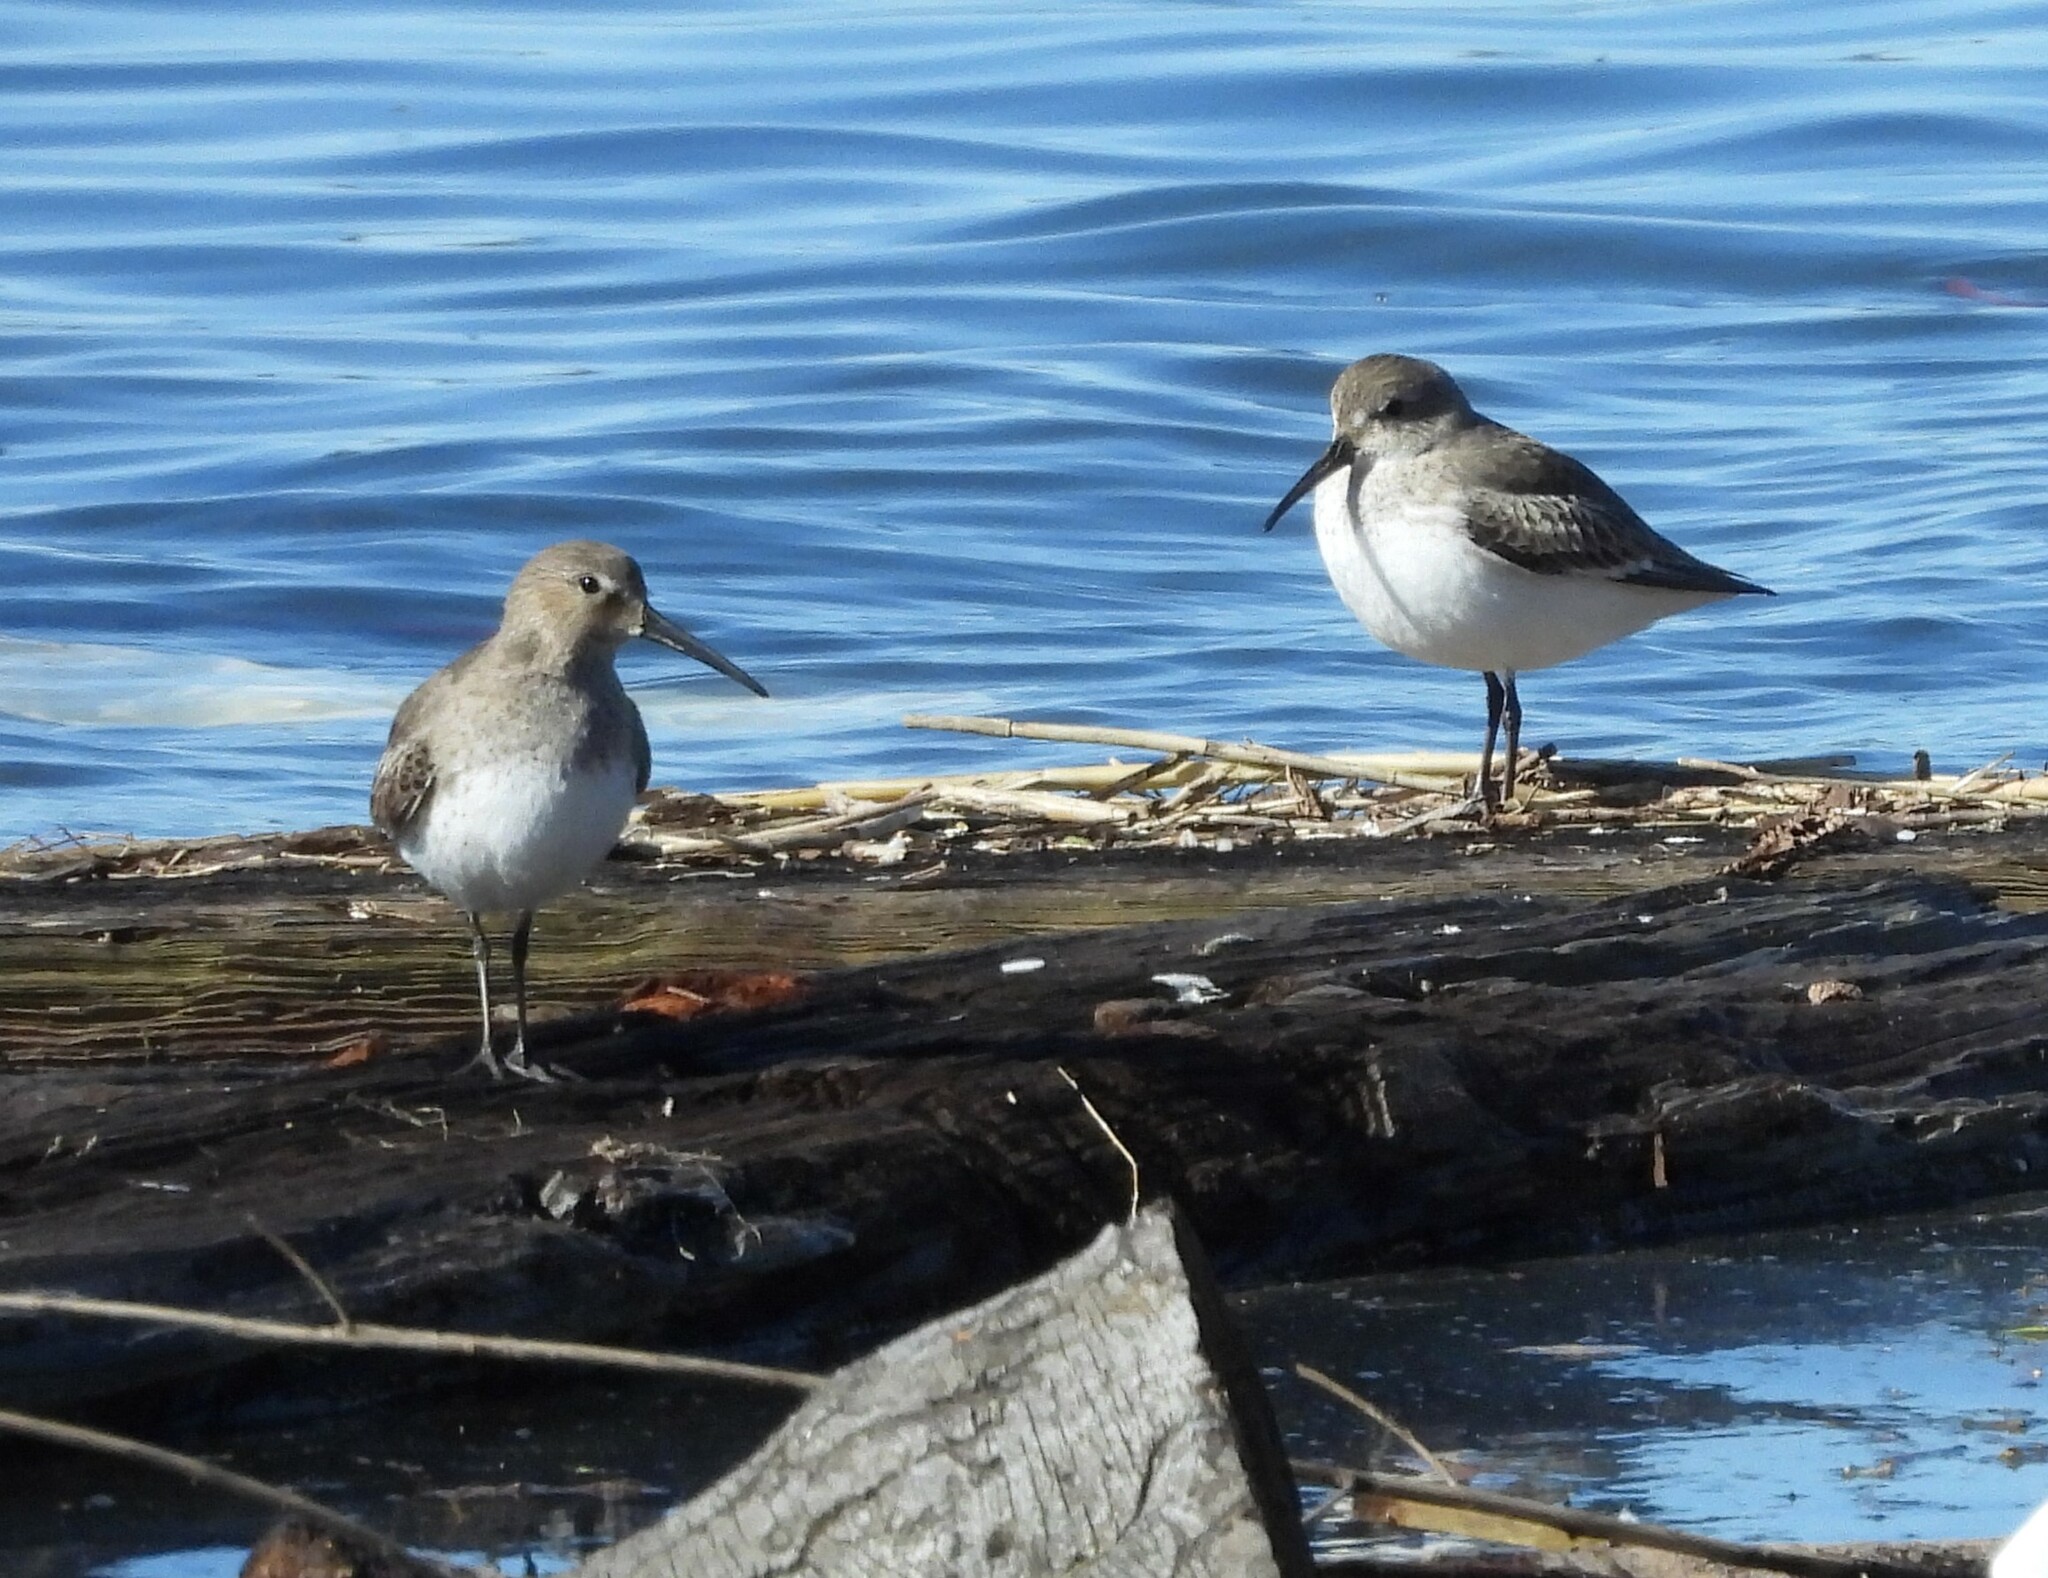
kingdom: Animalia
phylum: Chordata
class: Aves
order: Charadriiformes
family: Scolopacidae
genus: Calidris
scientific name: Calidris alpina
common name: Dunlin
